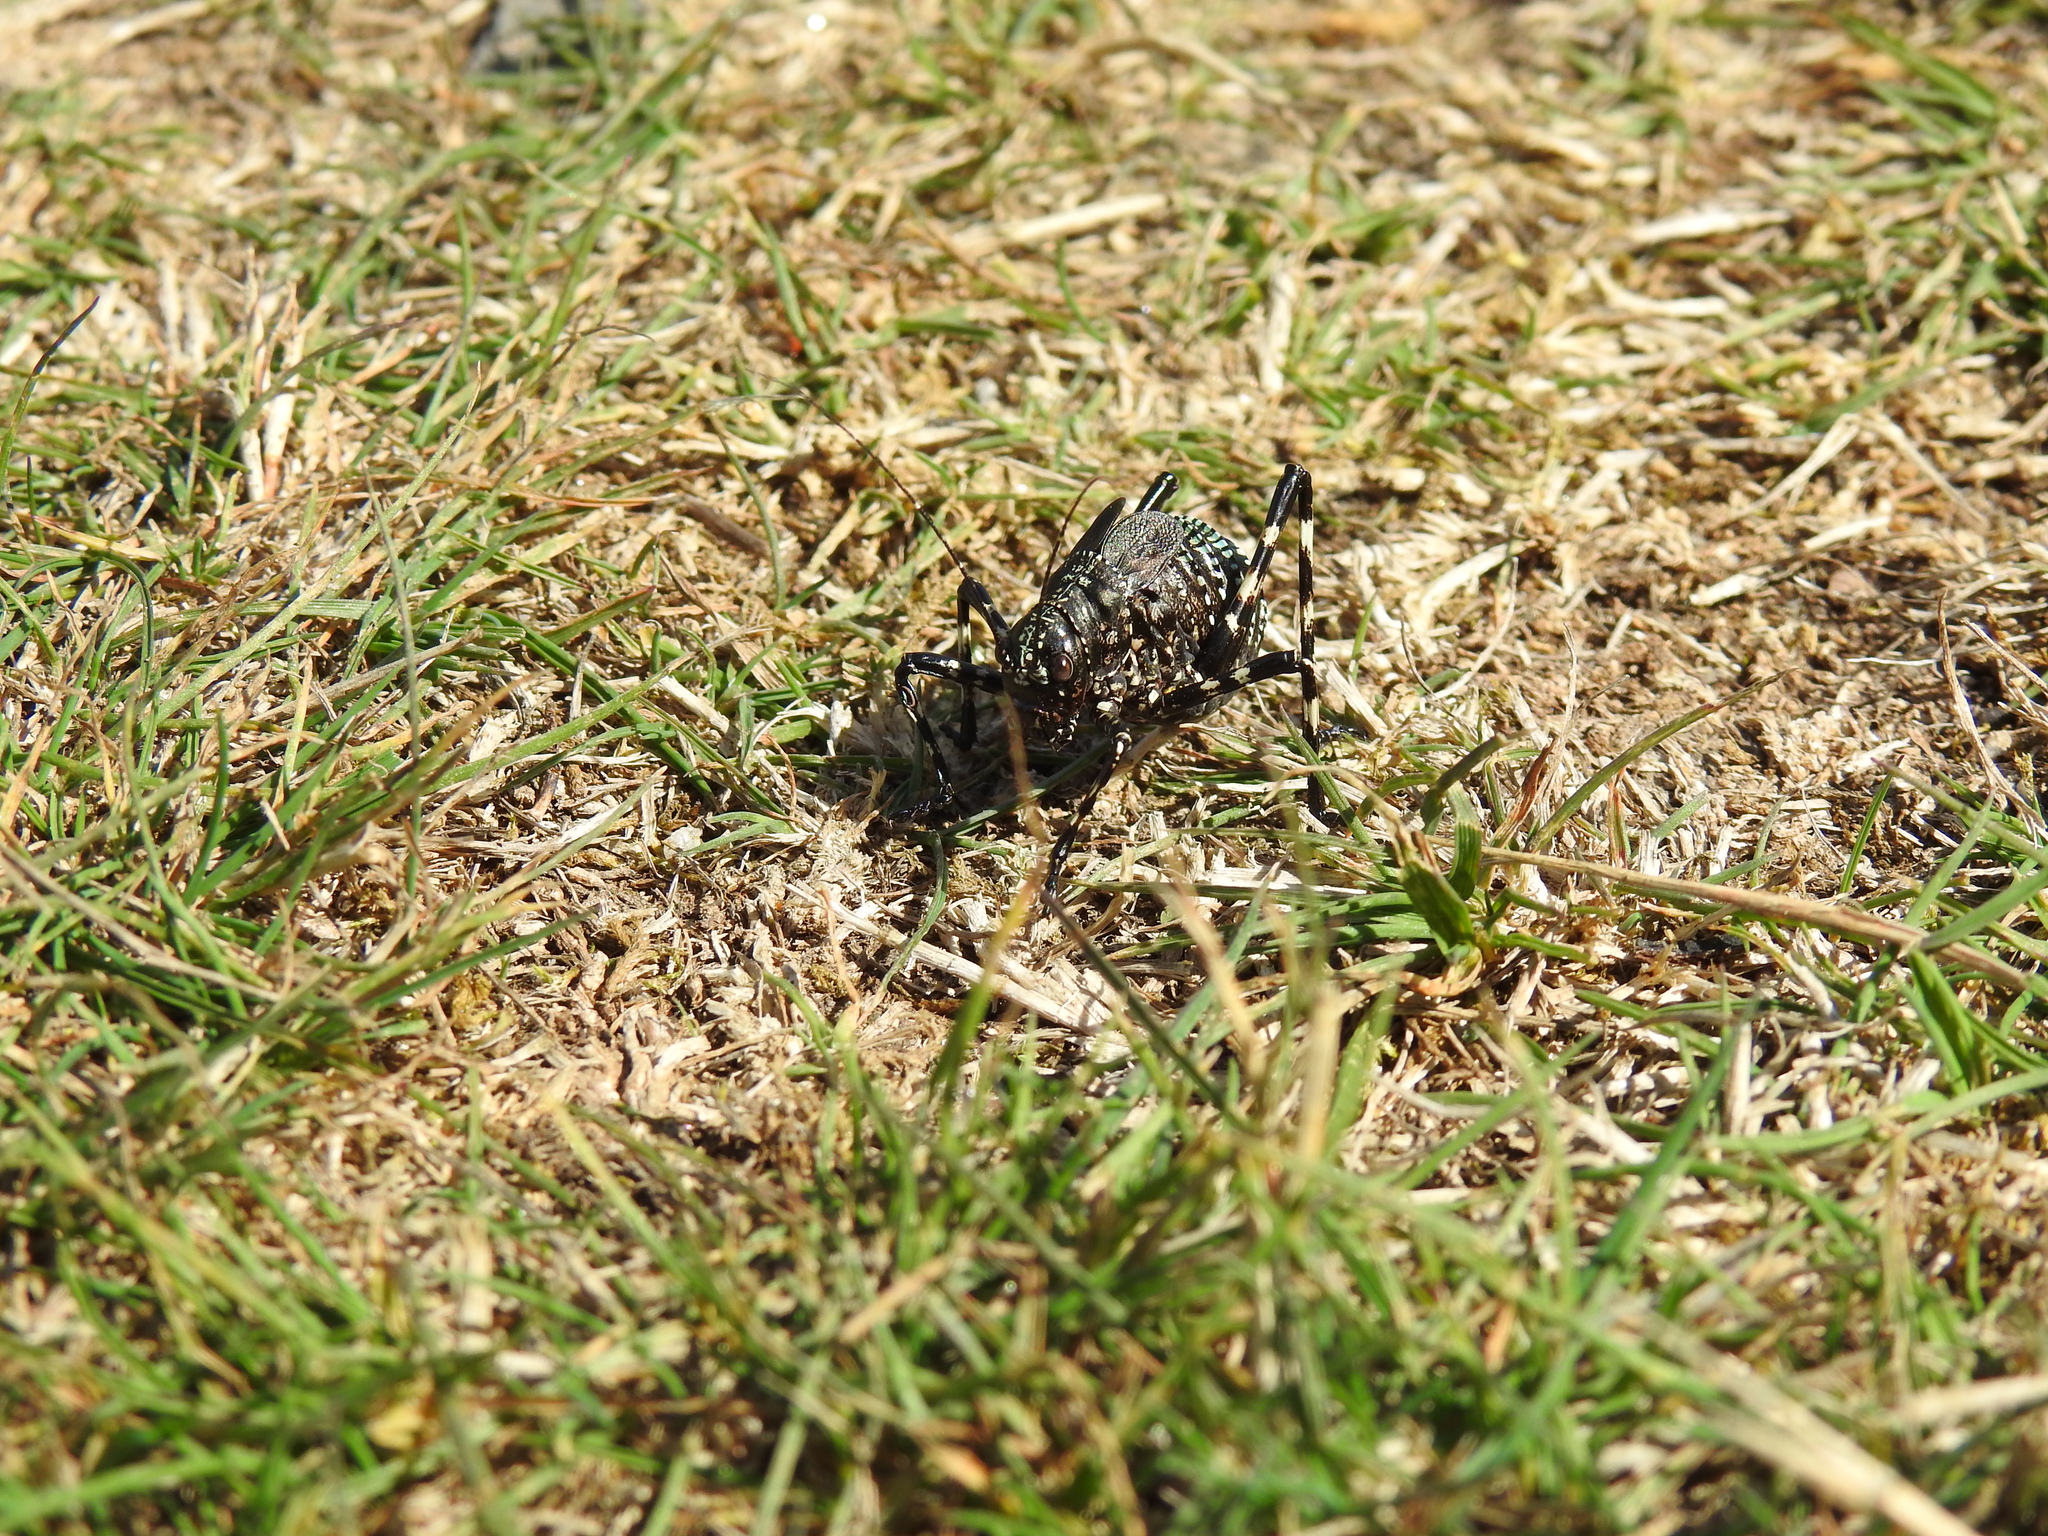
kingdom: Animalia
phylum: Arthropoda
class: Insecta
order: Orthoptera
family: Tettigoniidae
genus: Acripeza
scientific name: Acripeza reticulata
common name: Mountain katydid
